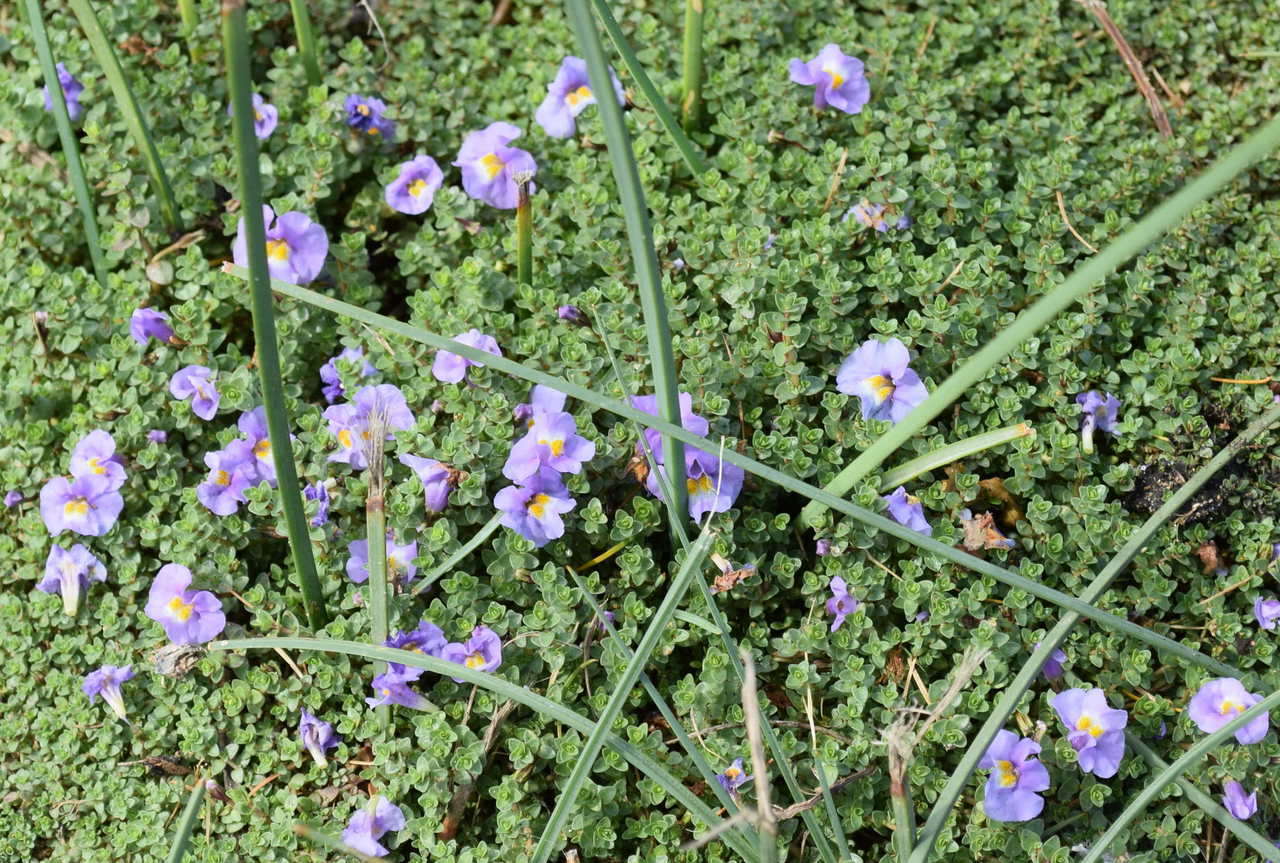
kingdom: Plantae
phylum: Tracheophyta
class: Magnoliopsida
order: Lamiales
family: Phrymaceae
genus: Thyridia
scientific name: Thyridia repens
